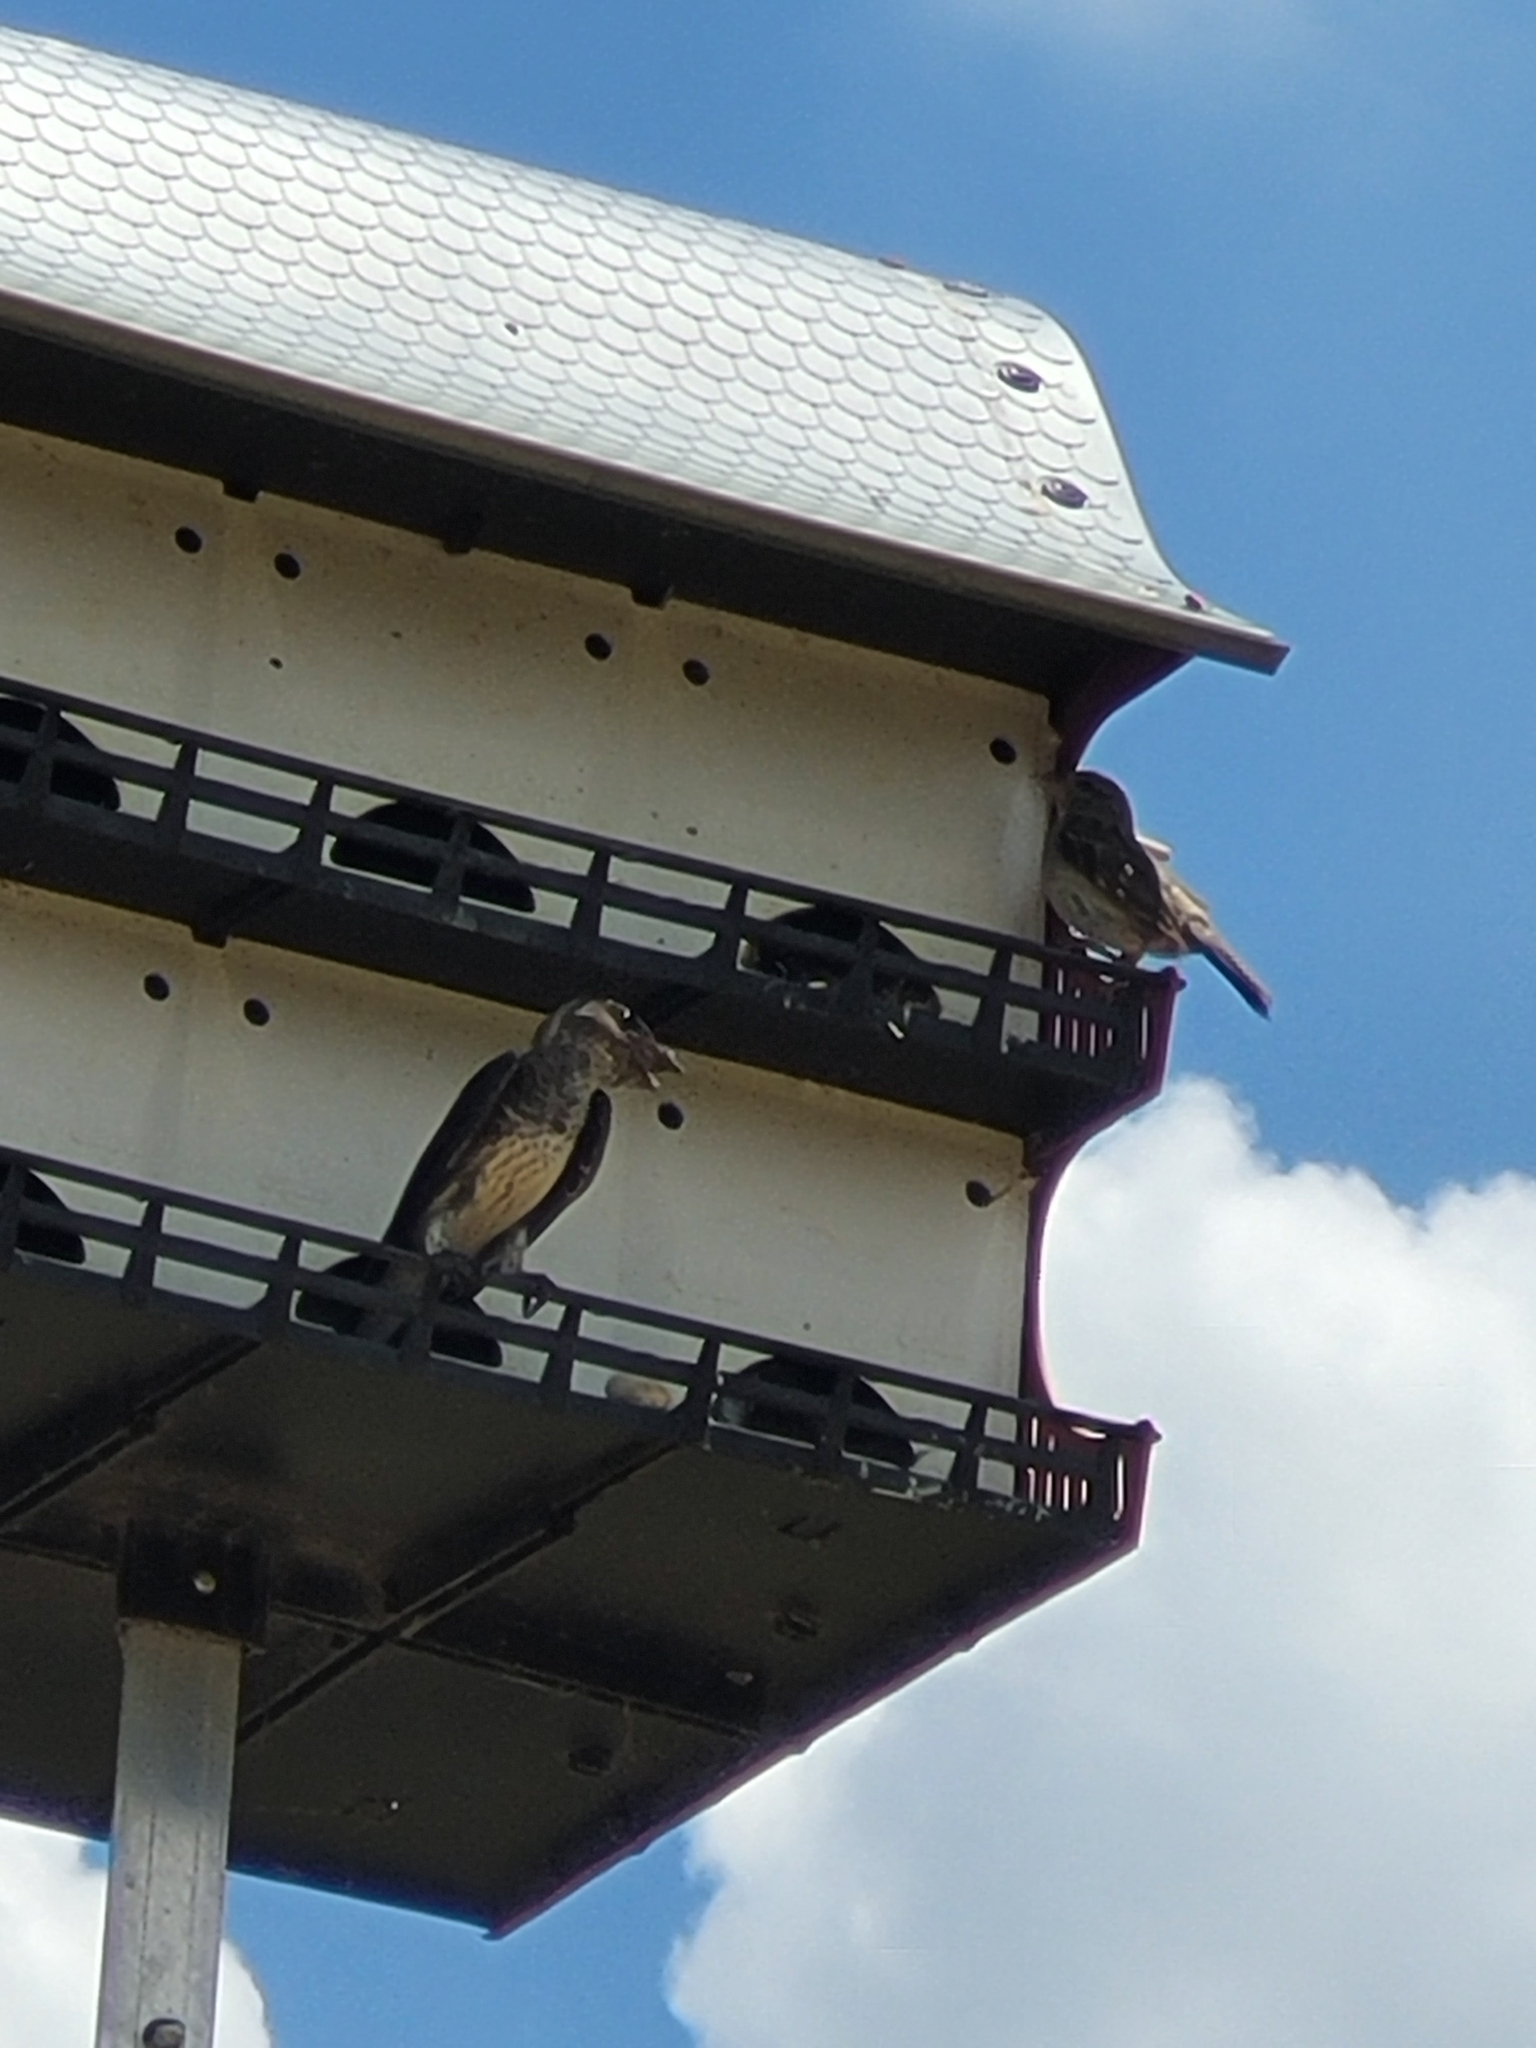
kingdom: Animalia
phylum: Chordata
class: Aves
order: Passeriformes
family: Hirundinidae
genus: Progne
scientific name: Progne subis
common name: Purple martin
